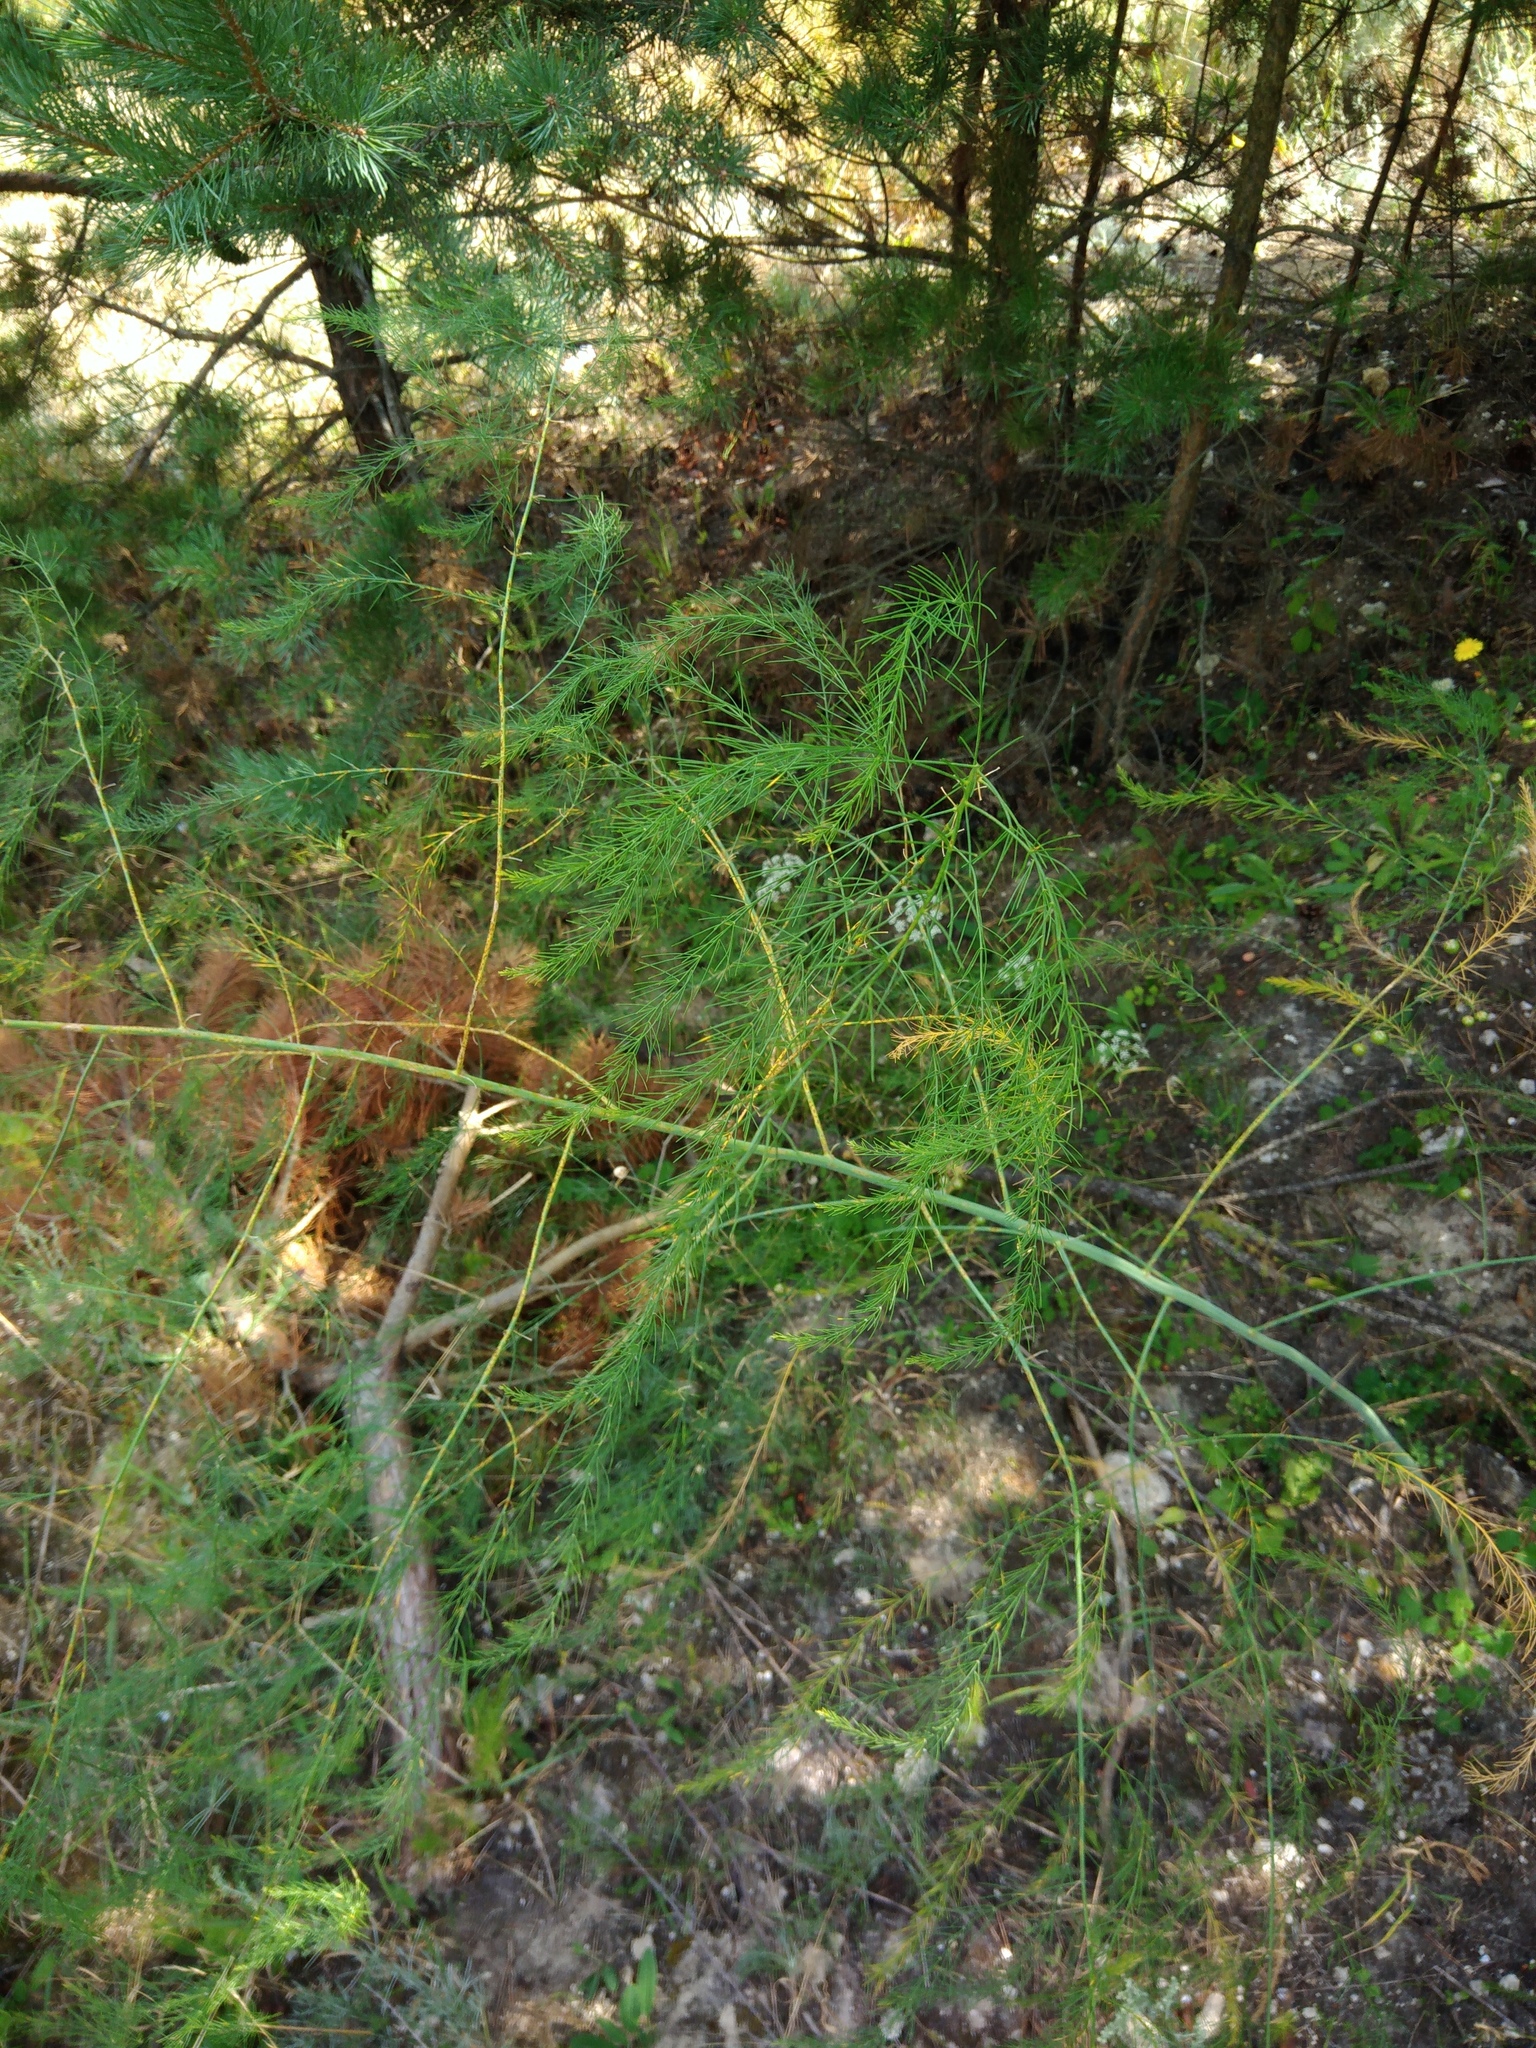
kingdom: Plantae
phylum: Tracheophyta
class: Liliopsida
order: Asparagales
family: Asparagaceae
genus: Asparagus
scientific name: Asparagus officinalis
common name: Garden asparagus
